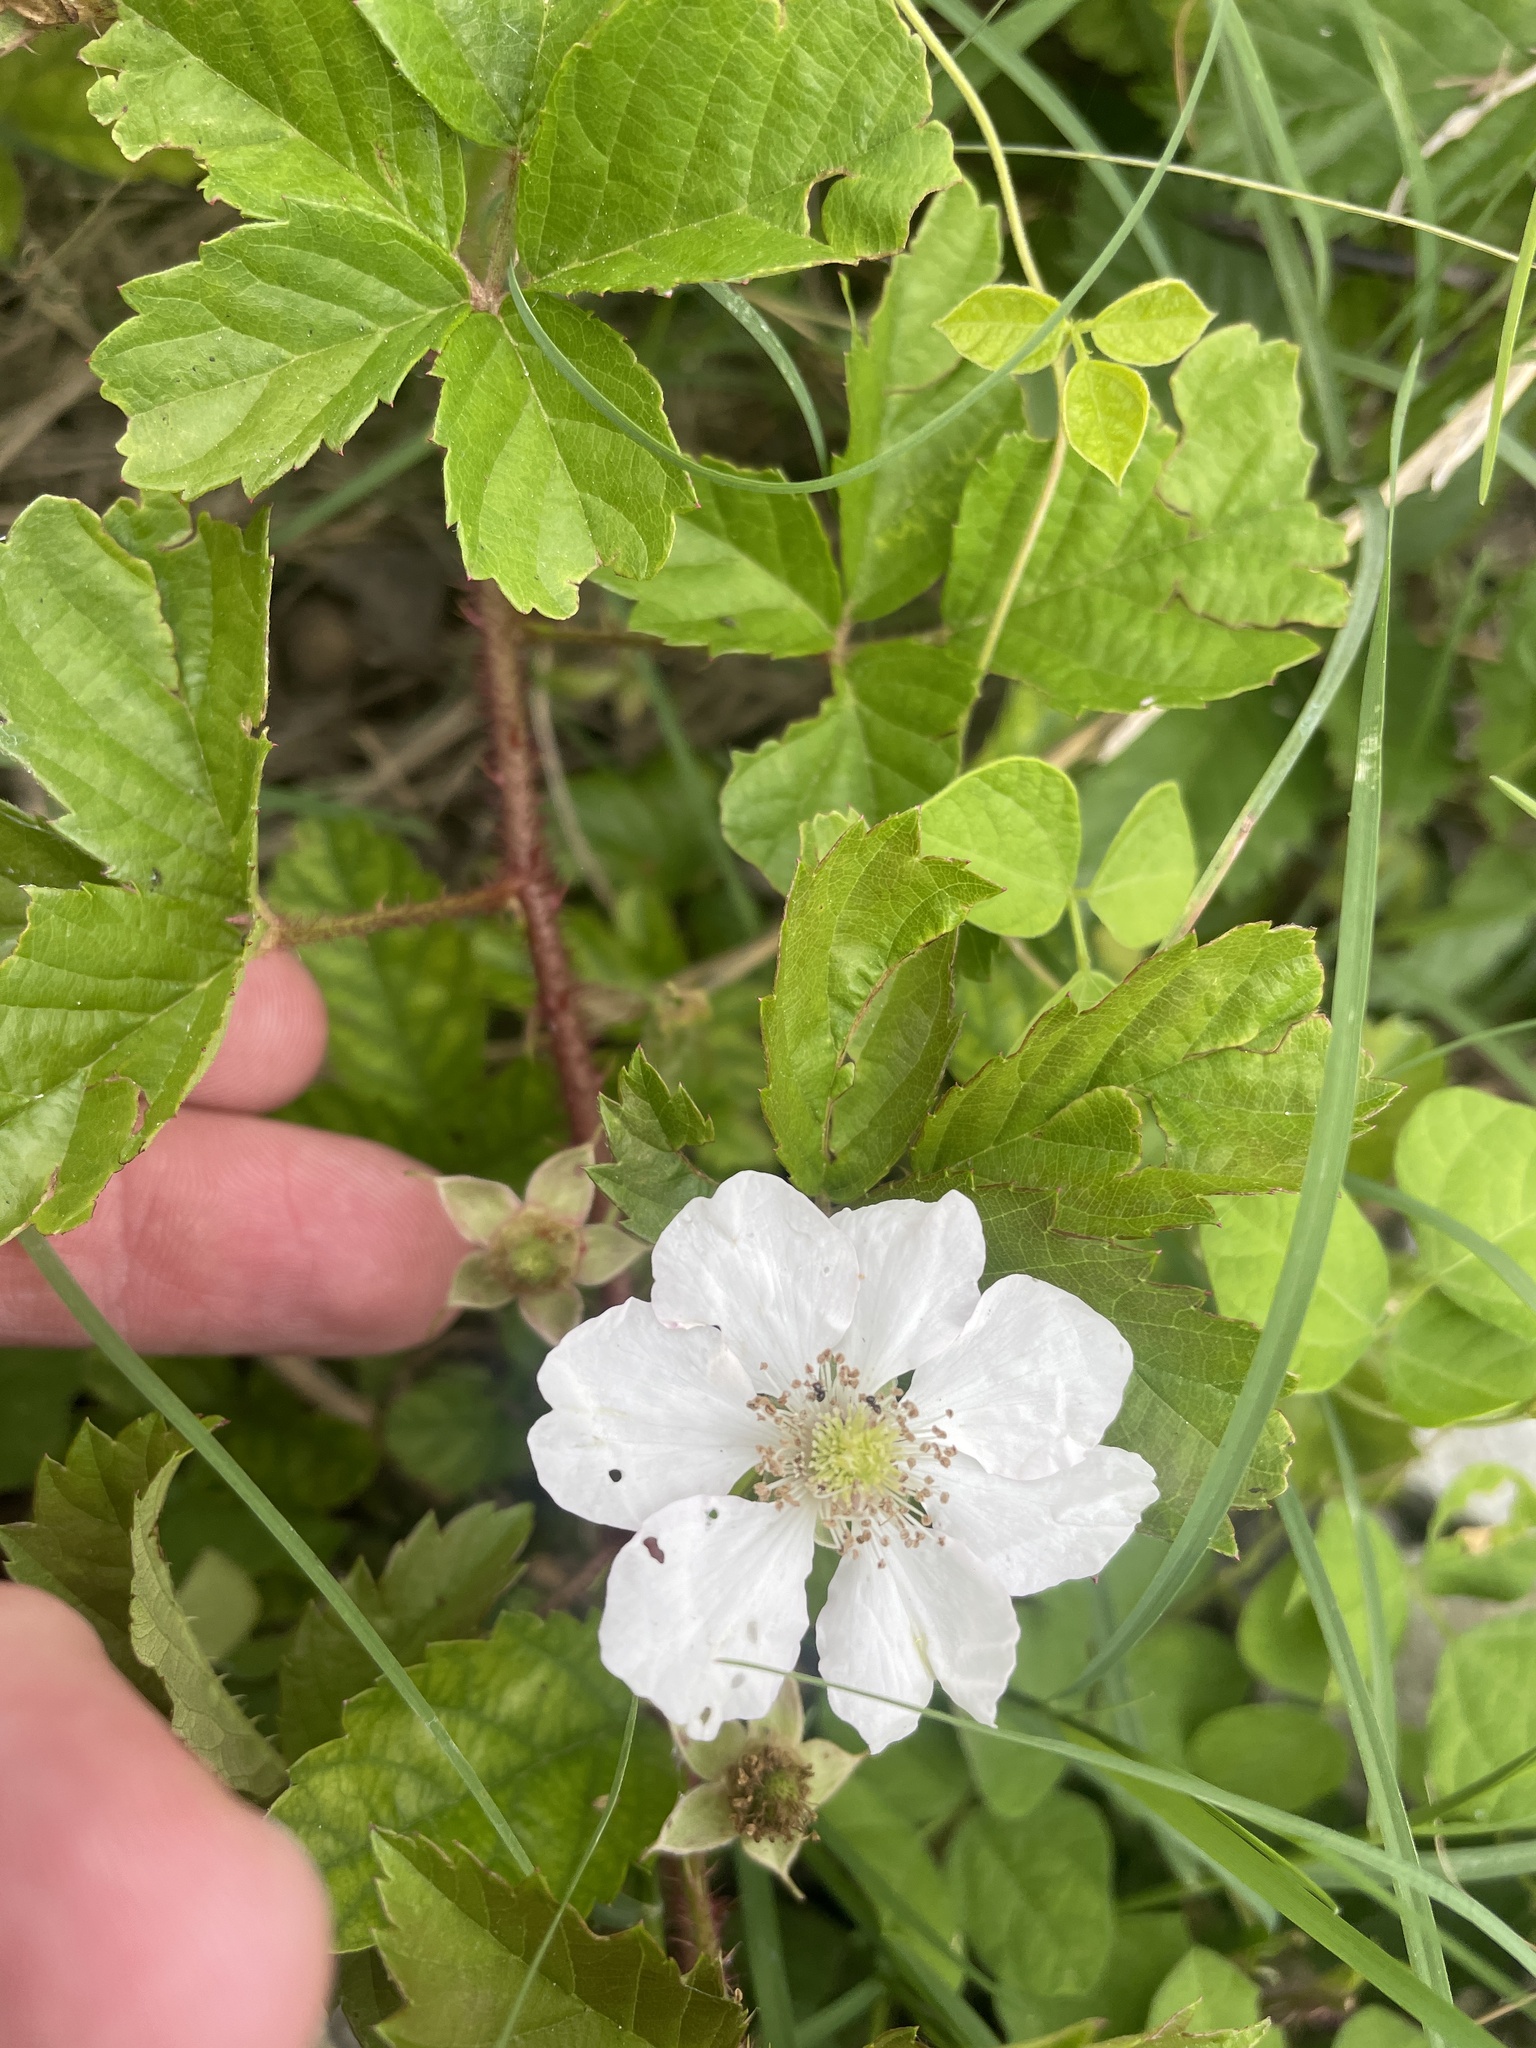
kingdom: Plantae
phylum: Tracheophyta
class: Magnoliopsida
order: Rosales
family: Rosaceae
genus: Rubus
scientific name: Rubus trivialis
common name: Southern dewberry
